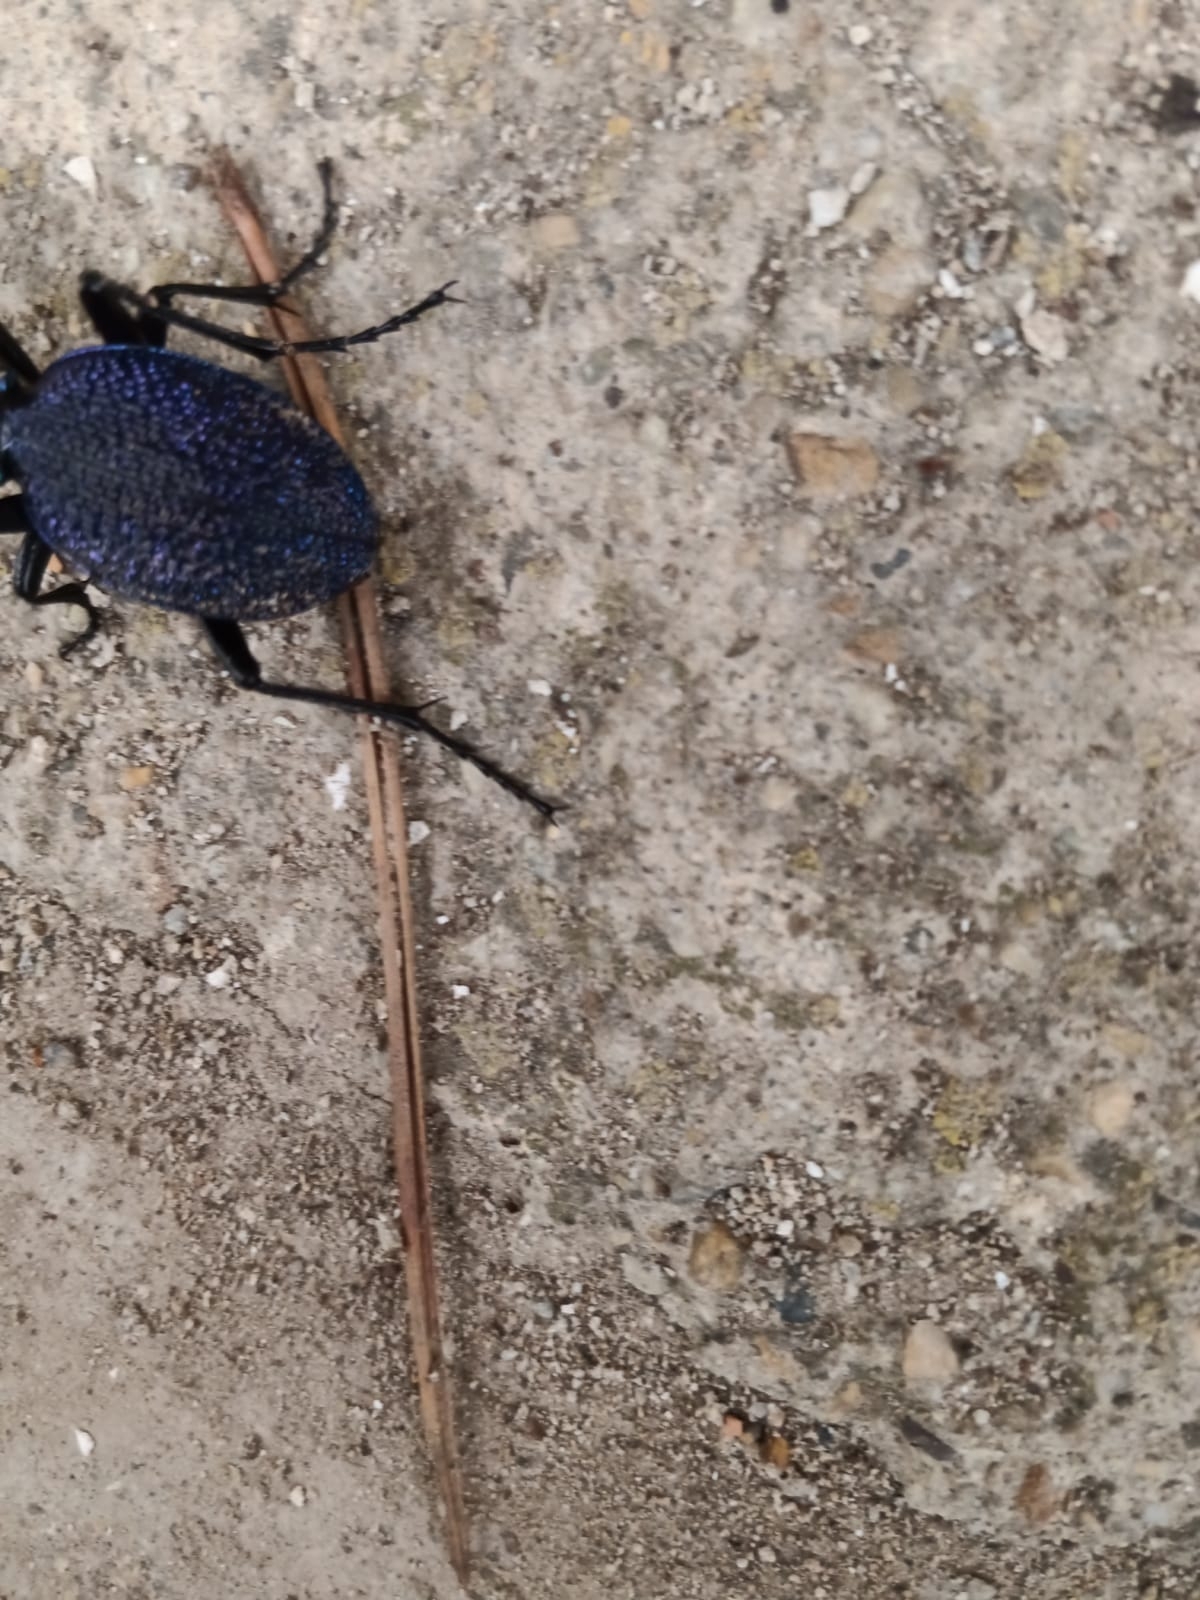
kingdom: Animalia
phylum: Arthropoda
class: Insecta
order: Coleoptera
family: Carabidae
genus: Carabus
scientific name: Carabus scabrosus
